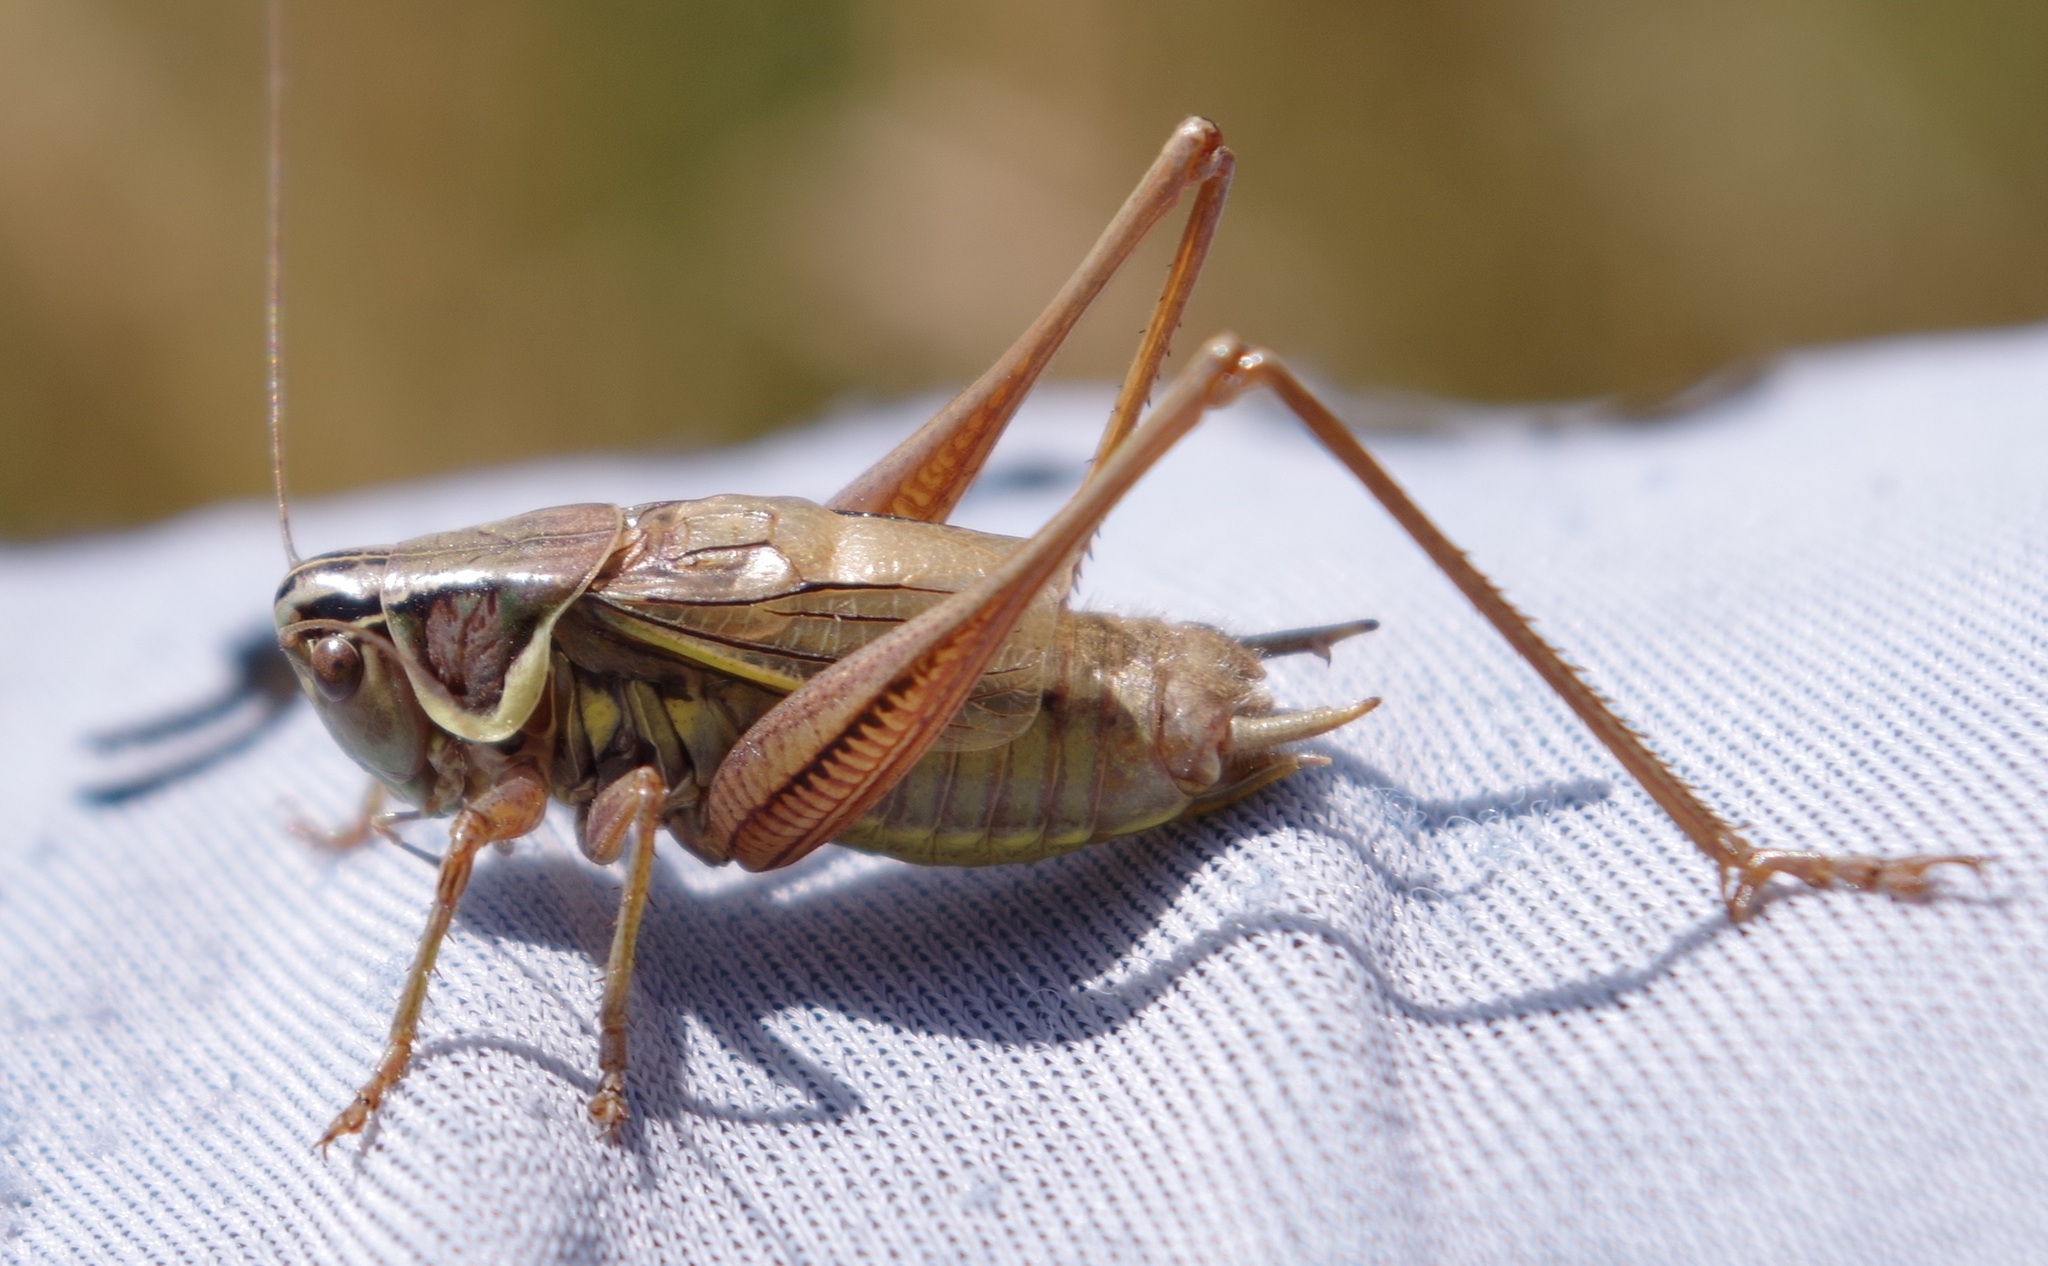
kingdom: Animalia
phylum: Arthropoda
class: Insecta
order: Orthoptera
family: Tettigoniidae
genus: Roeseliana
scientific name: Roeseliana roeselii
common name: Roesel's bush cricket
